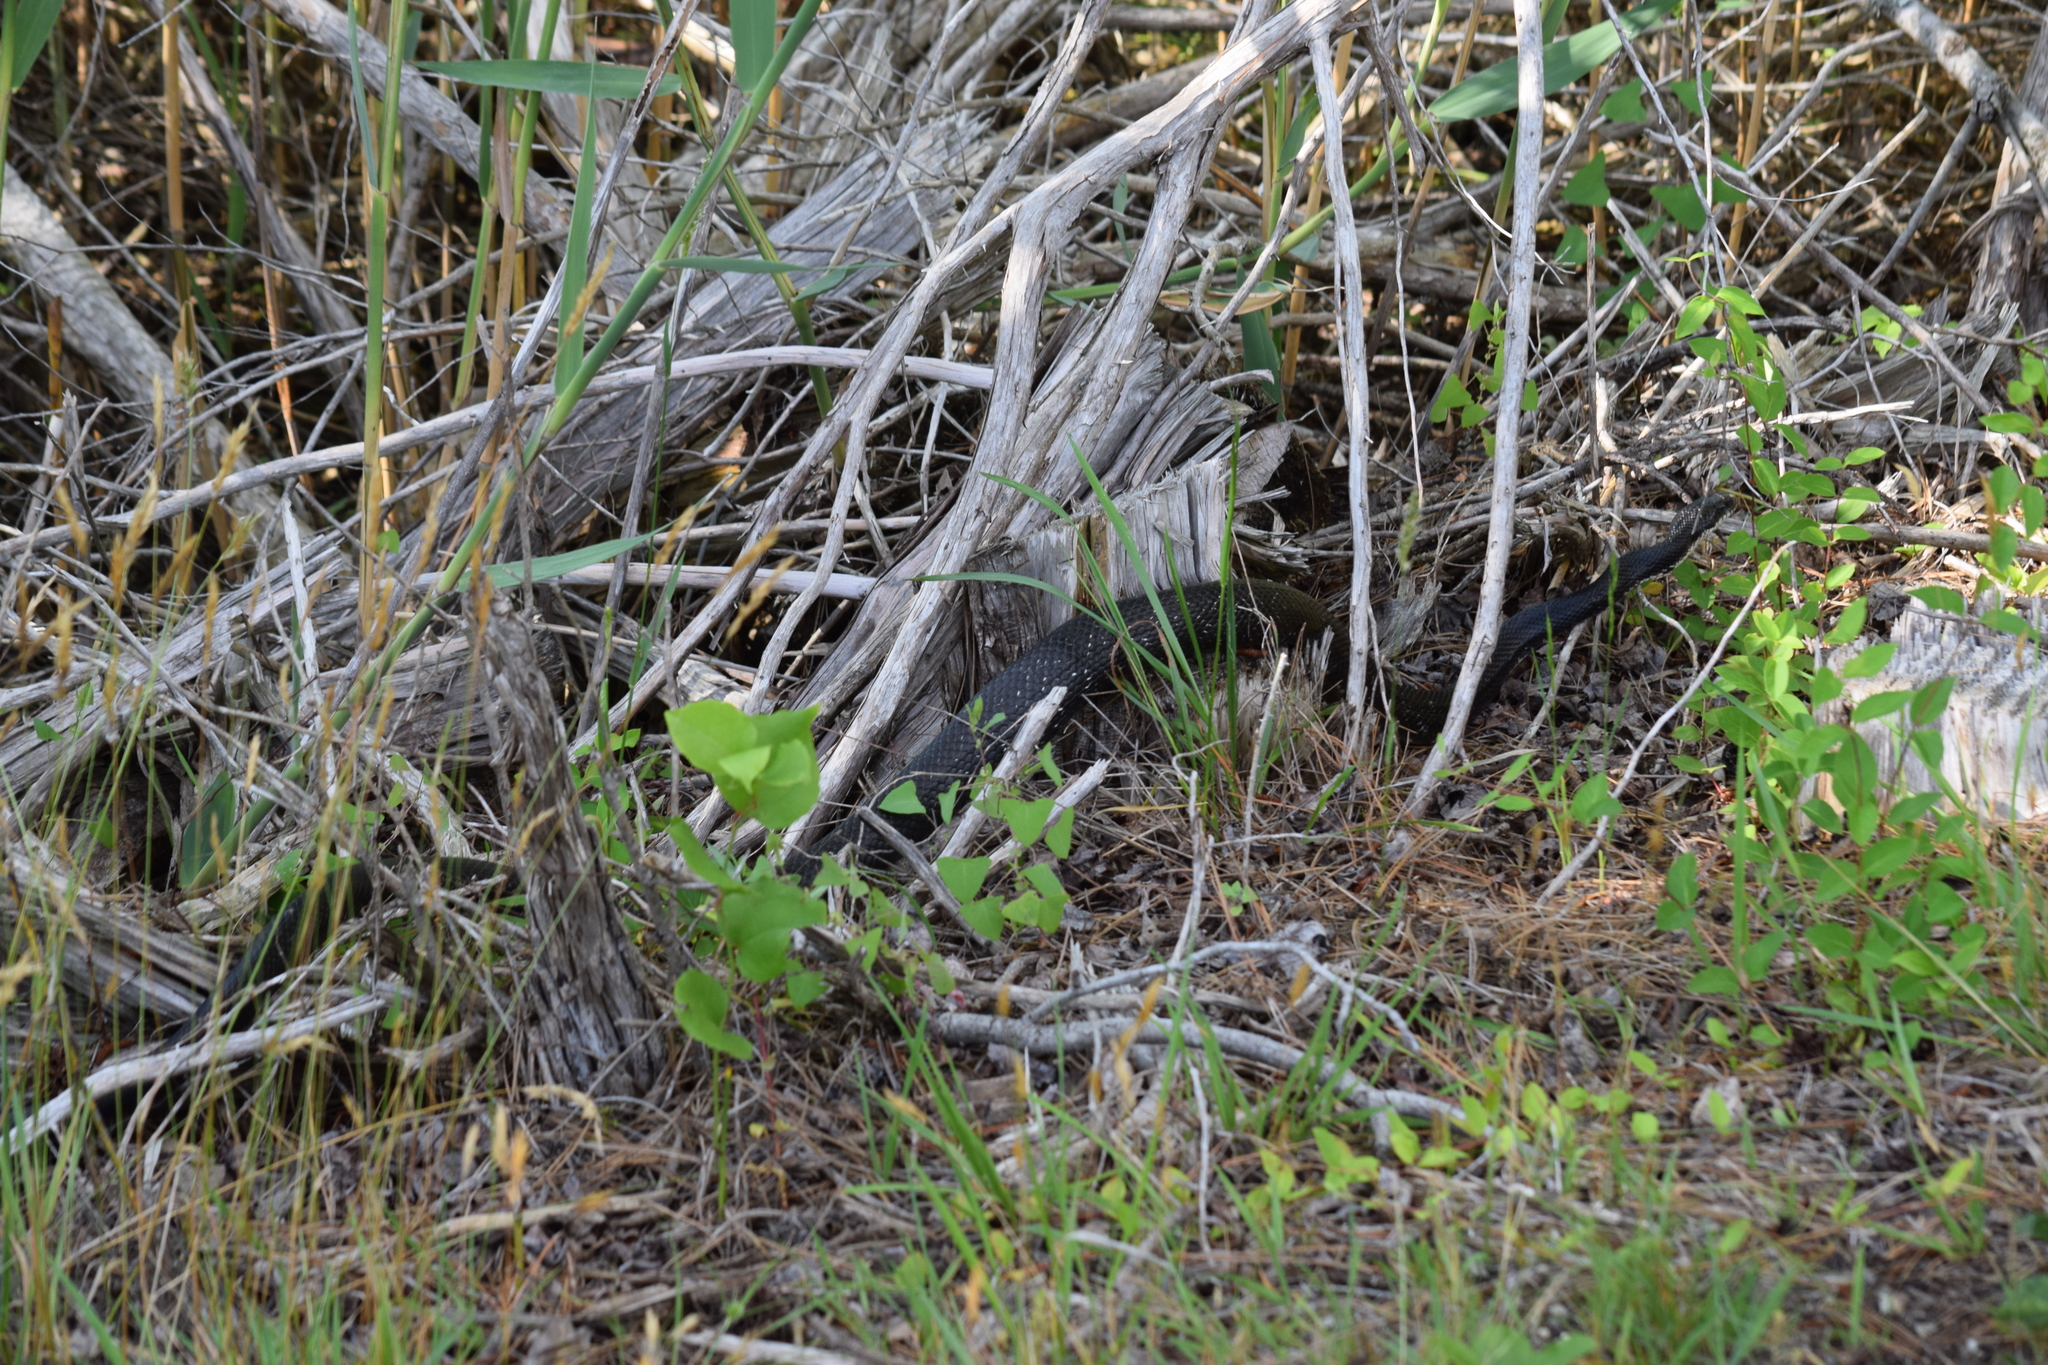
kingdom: Animalia
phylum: Chordata
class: Squamata
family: Colubridae
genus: Pantherophis
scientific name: Pantherophis alleghaniensis
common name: Eastern rat snake
